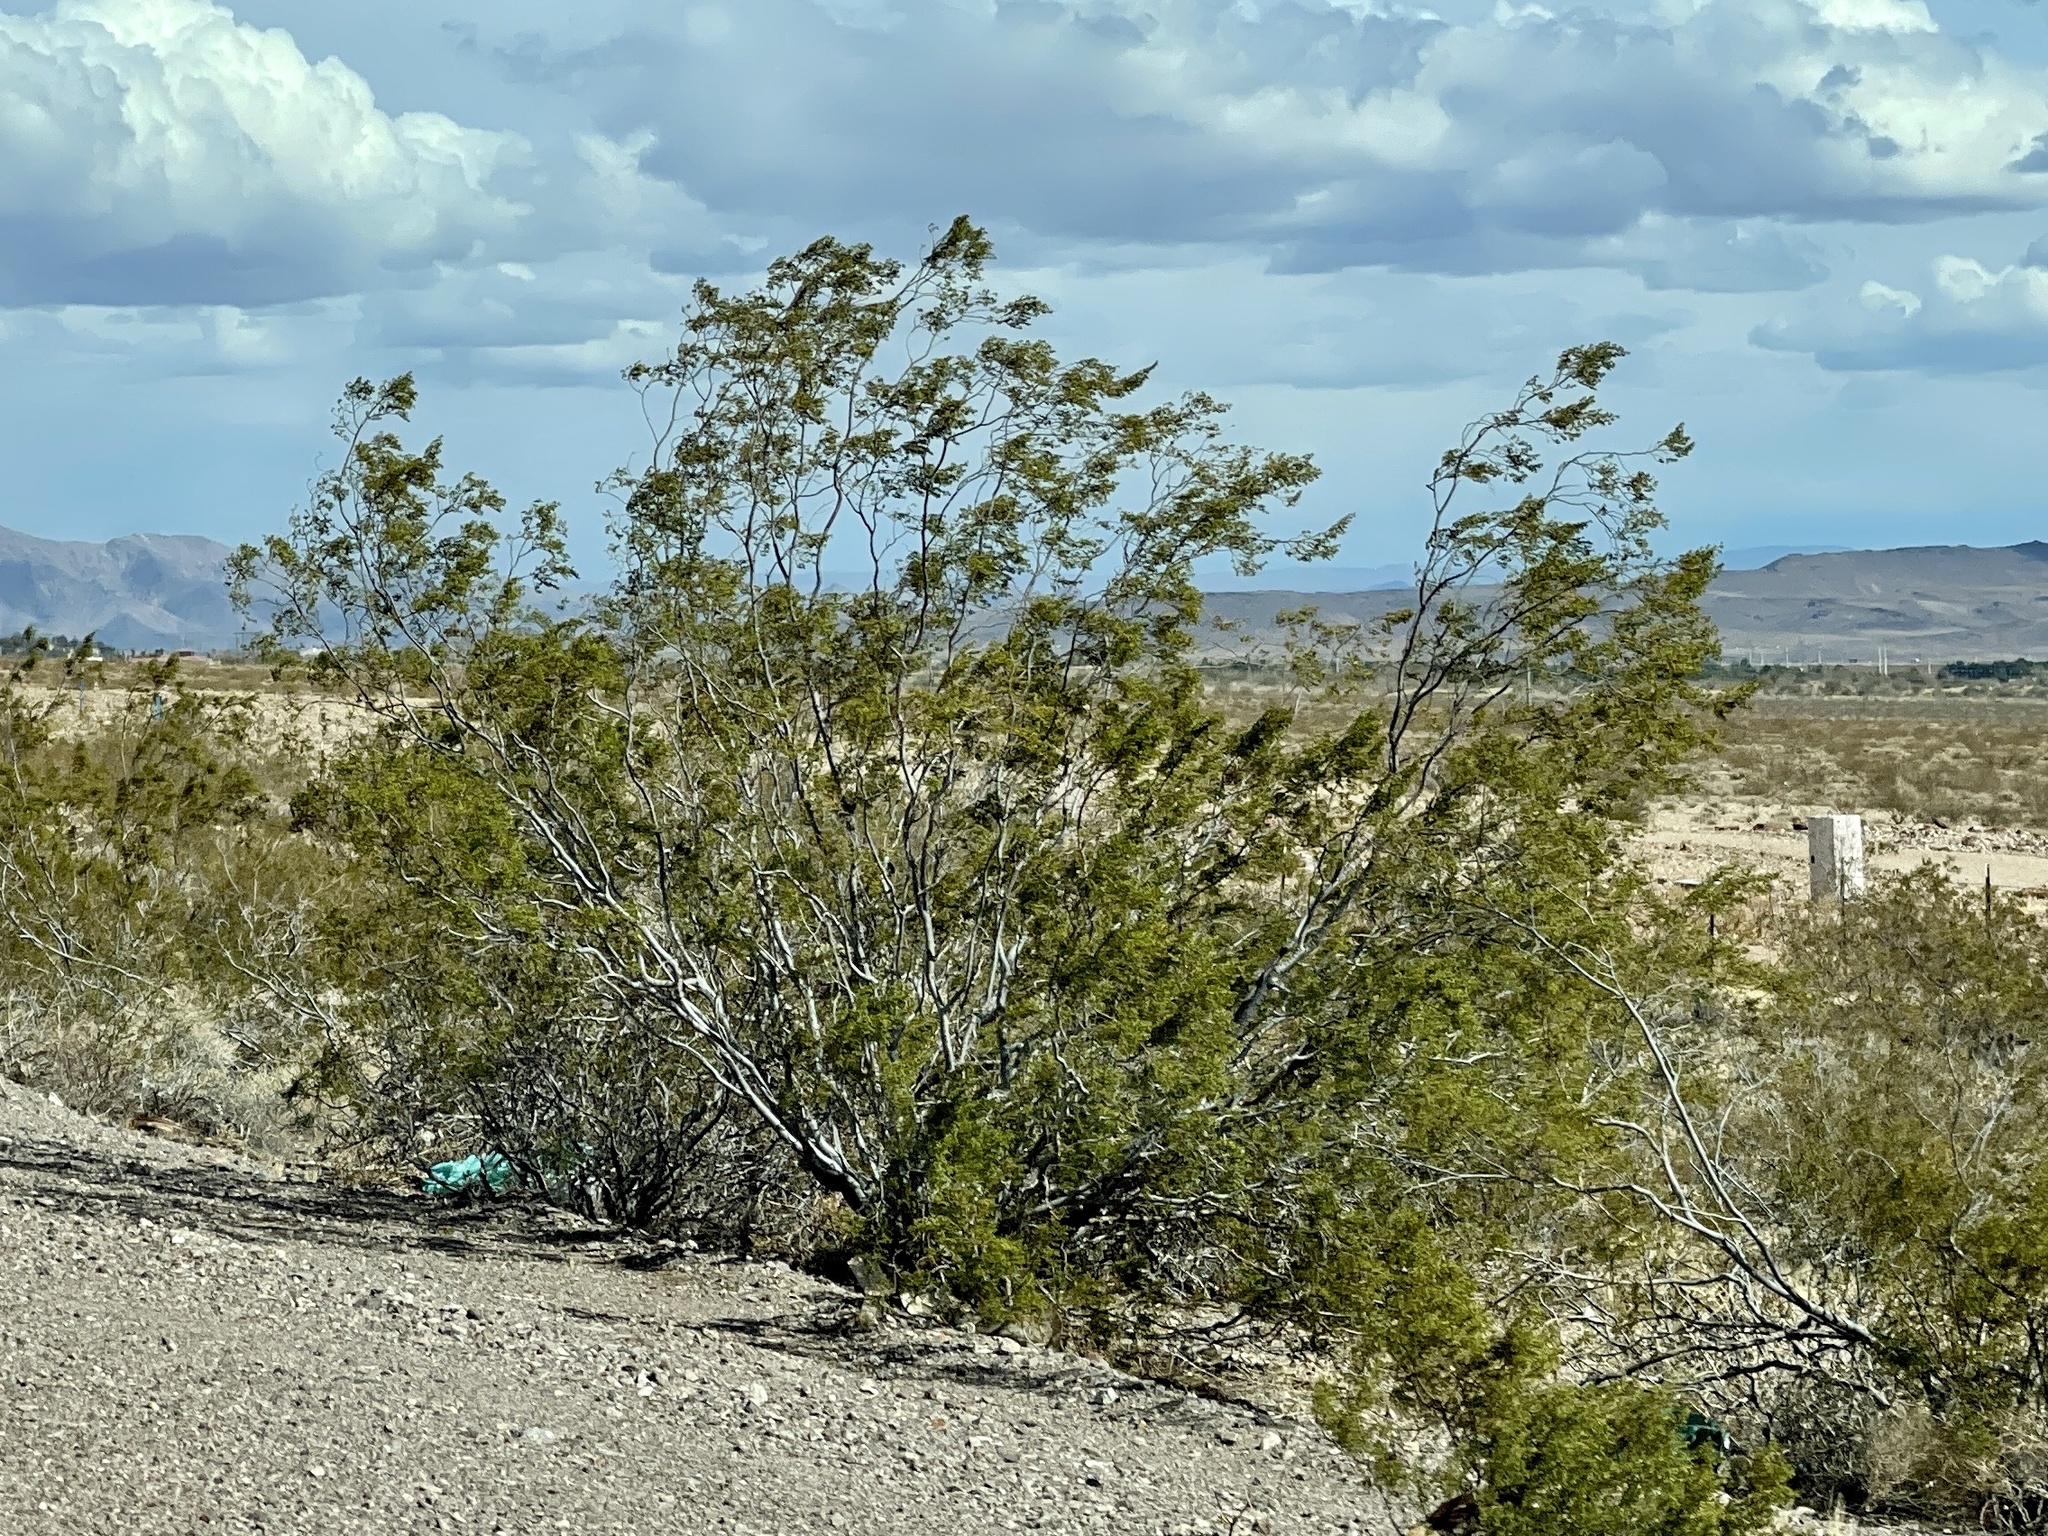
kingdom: Plantae
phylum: Tracheophyta
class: Magnoliopsida
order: Zygophyllales
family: Zygophyllaceae
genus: Larrea
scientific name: Larrea tridentata
